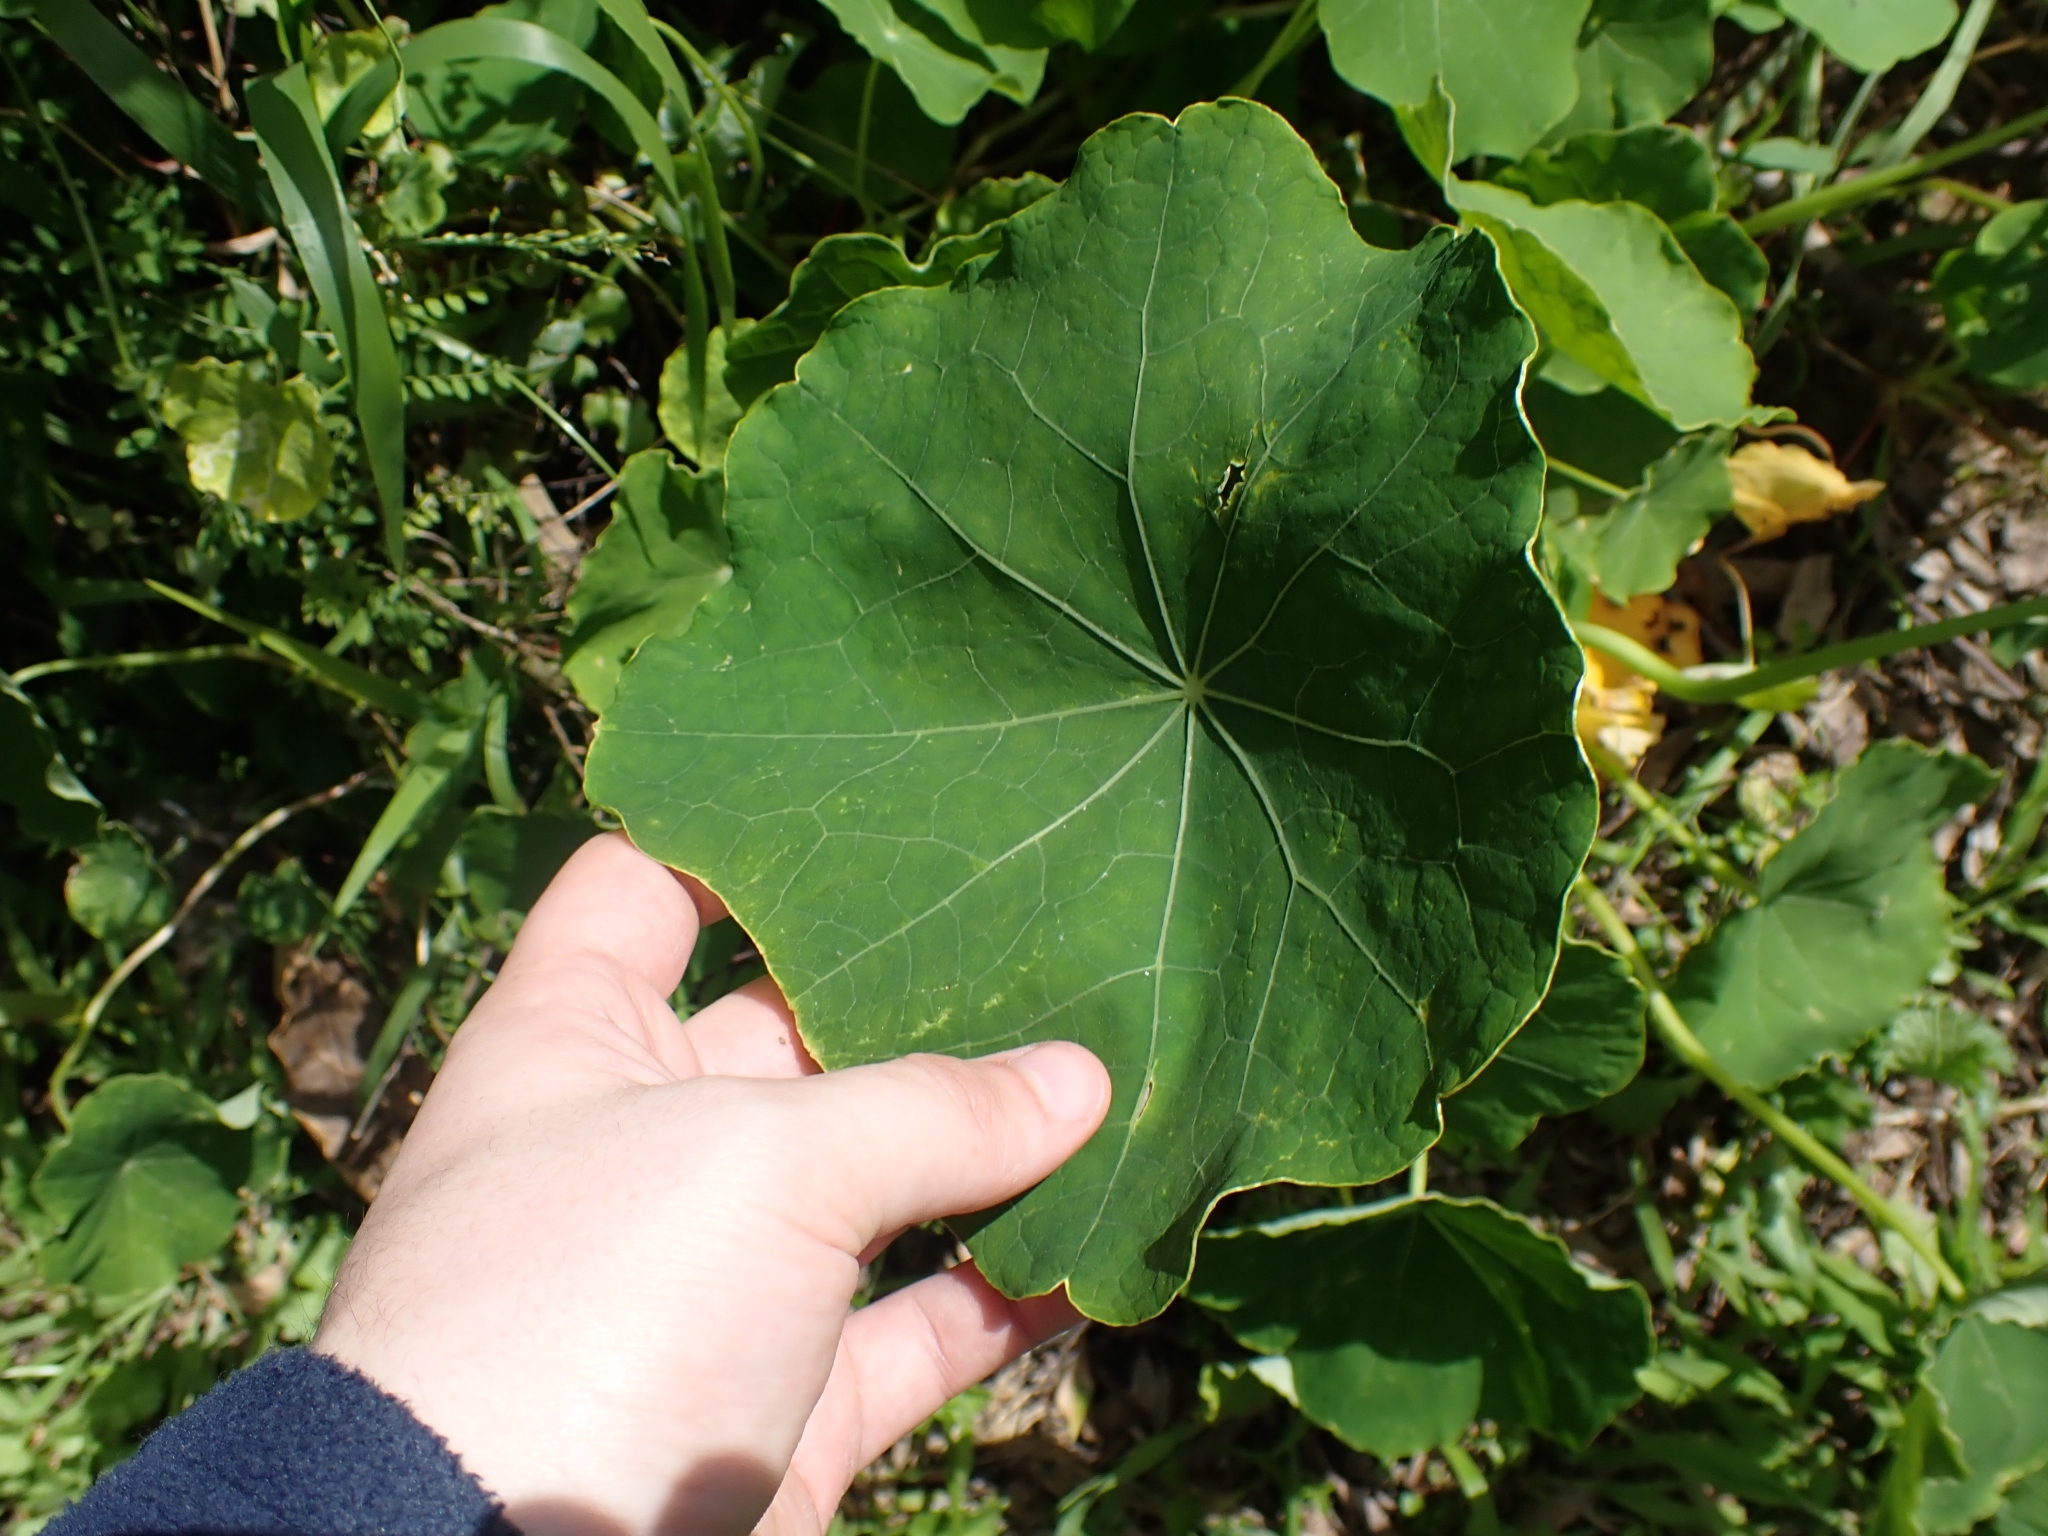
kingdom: Plantae
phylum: Tracheophyta
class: Magnoliopsida
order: Brassicales
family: Tropaeolaceae
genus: Tropaeolum
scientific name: Tropaeolum majus
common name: Nasturtium
